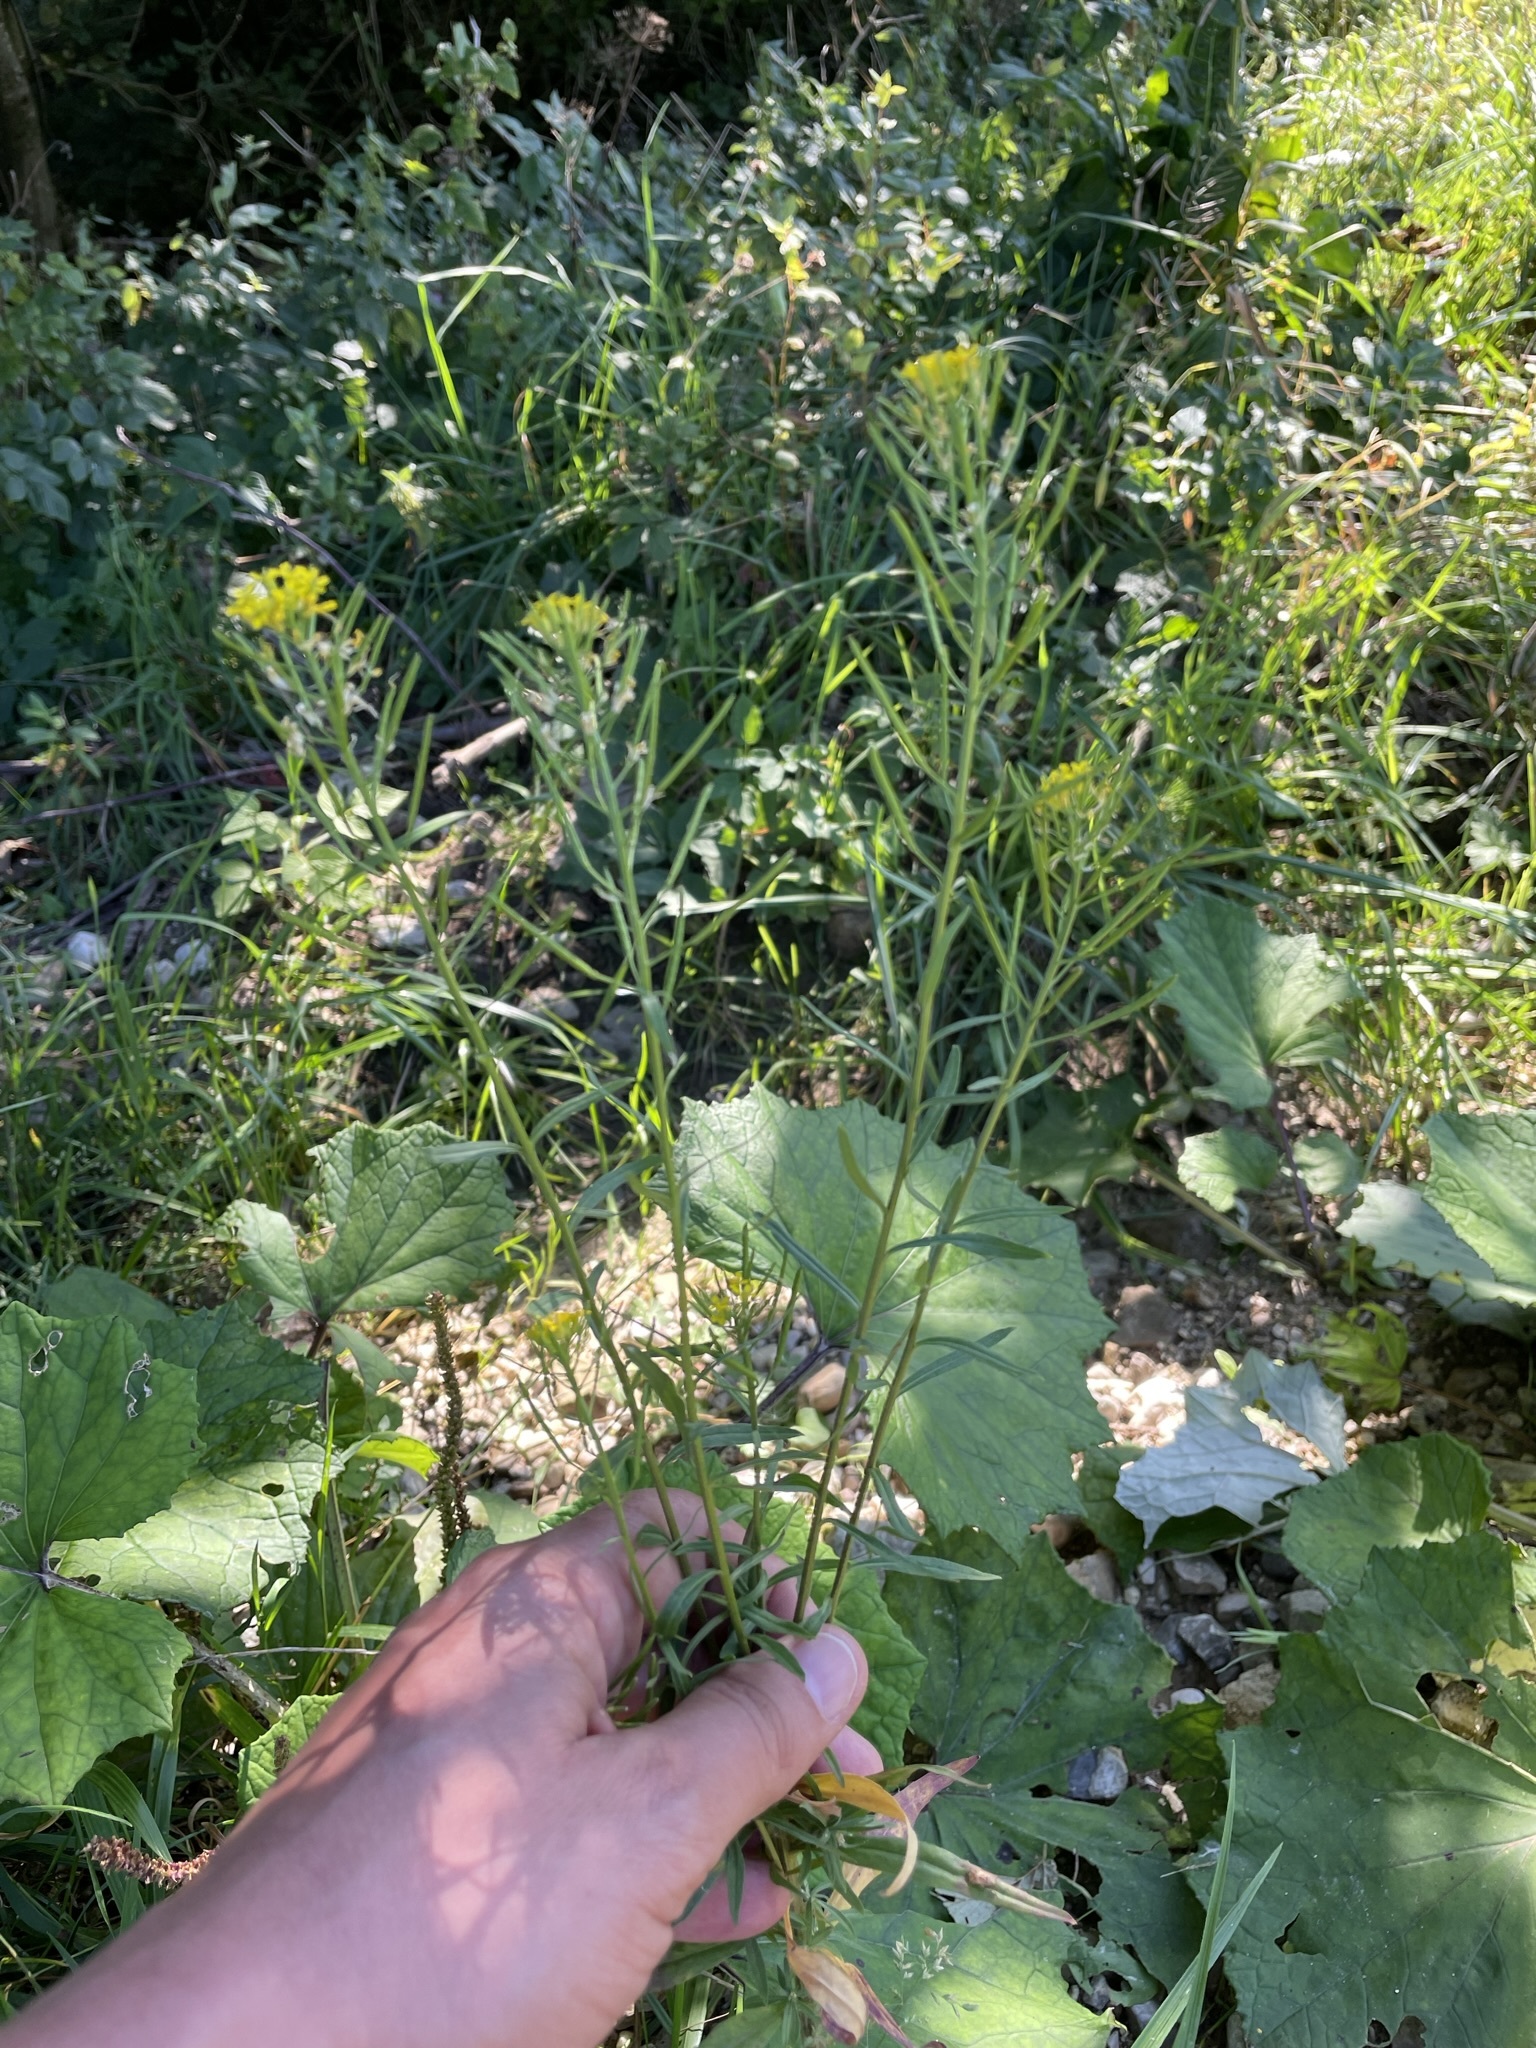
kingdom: Plantae
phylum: Tracheophyta
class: Magnoliopsida
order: Brassicales
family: Brassicaceae
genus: Erysimum
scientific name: Erysimum cheiranthoides
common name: Treacle mustard
